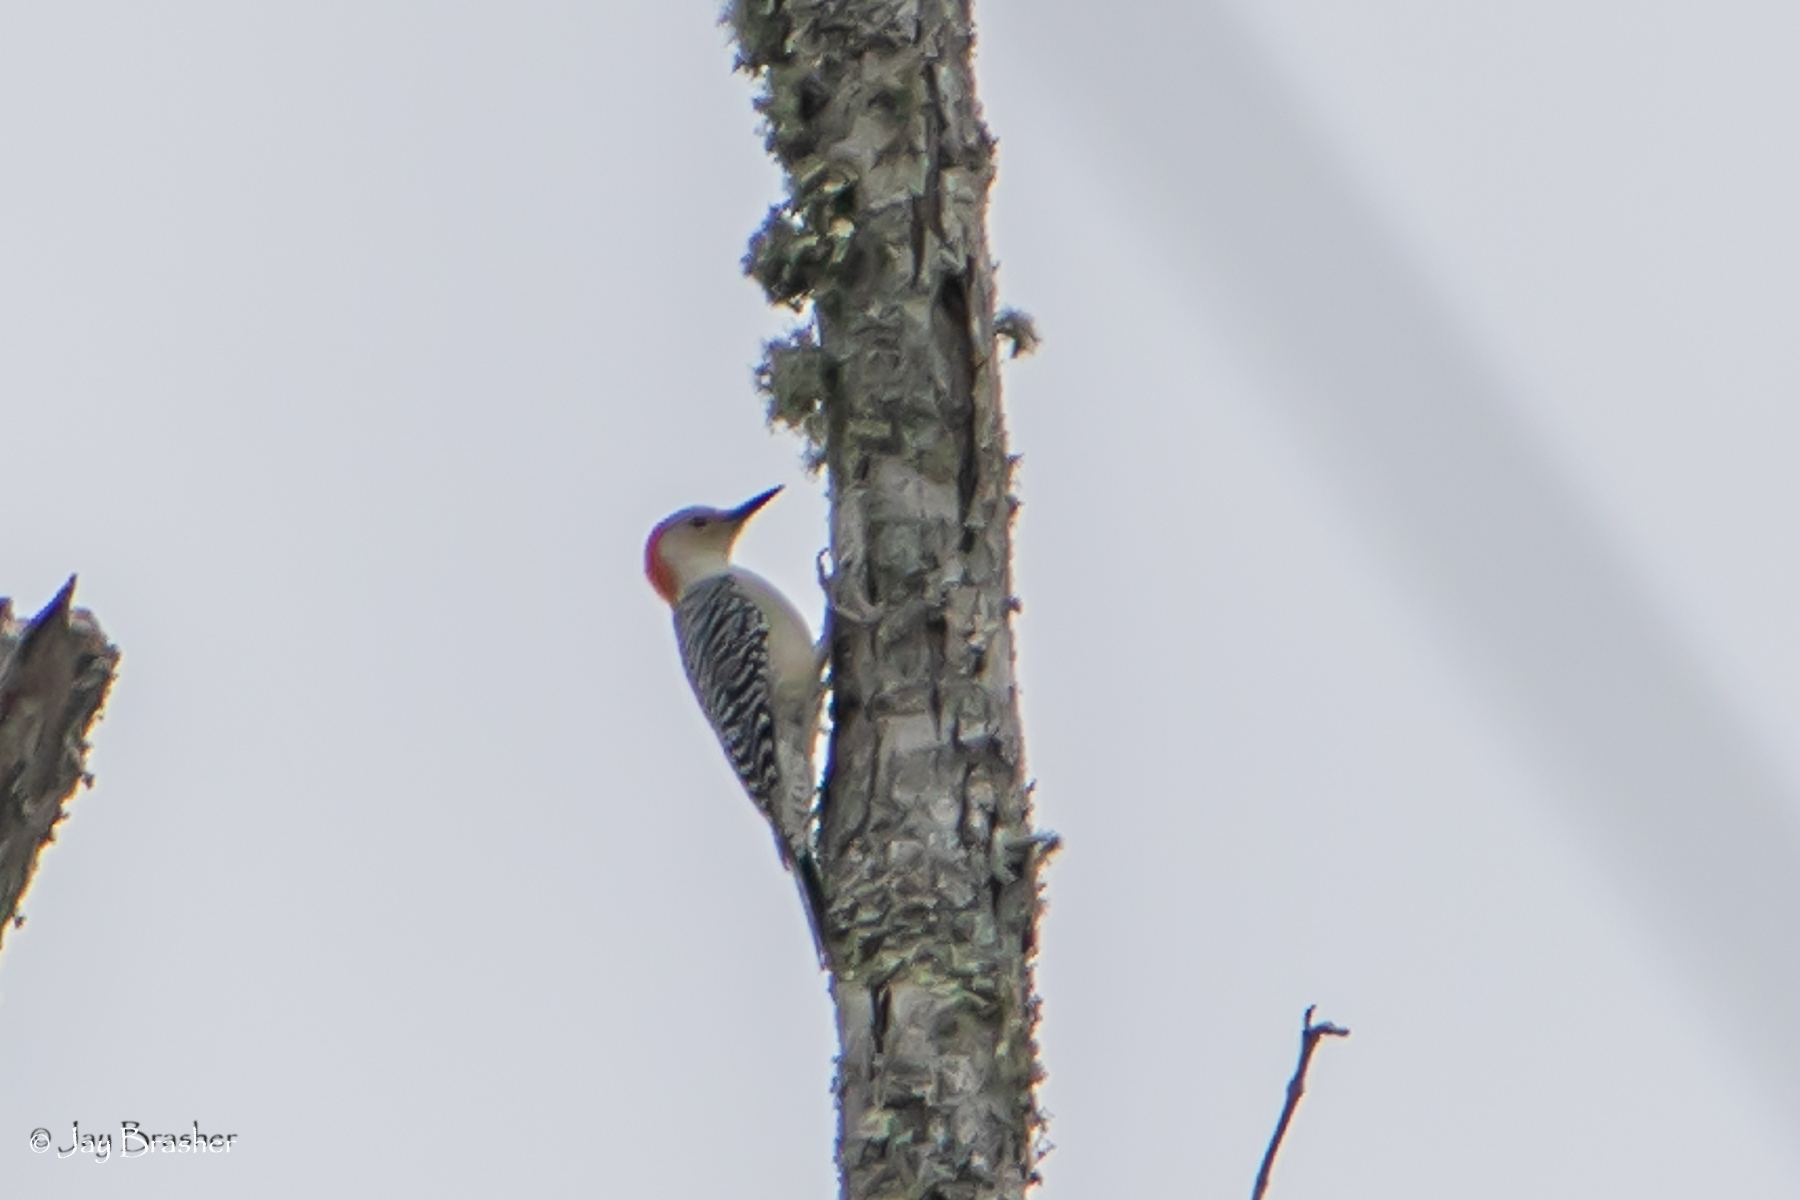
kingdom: Animalia
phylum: Chordata
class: Aves
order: Piciformes
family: Picidae
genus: Melanerpes
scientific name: Melanerpes carolinus
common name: Red-bellied woodpecker
